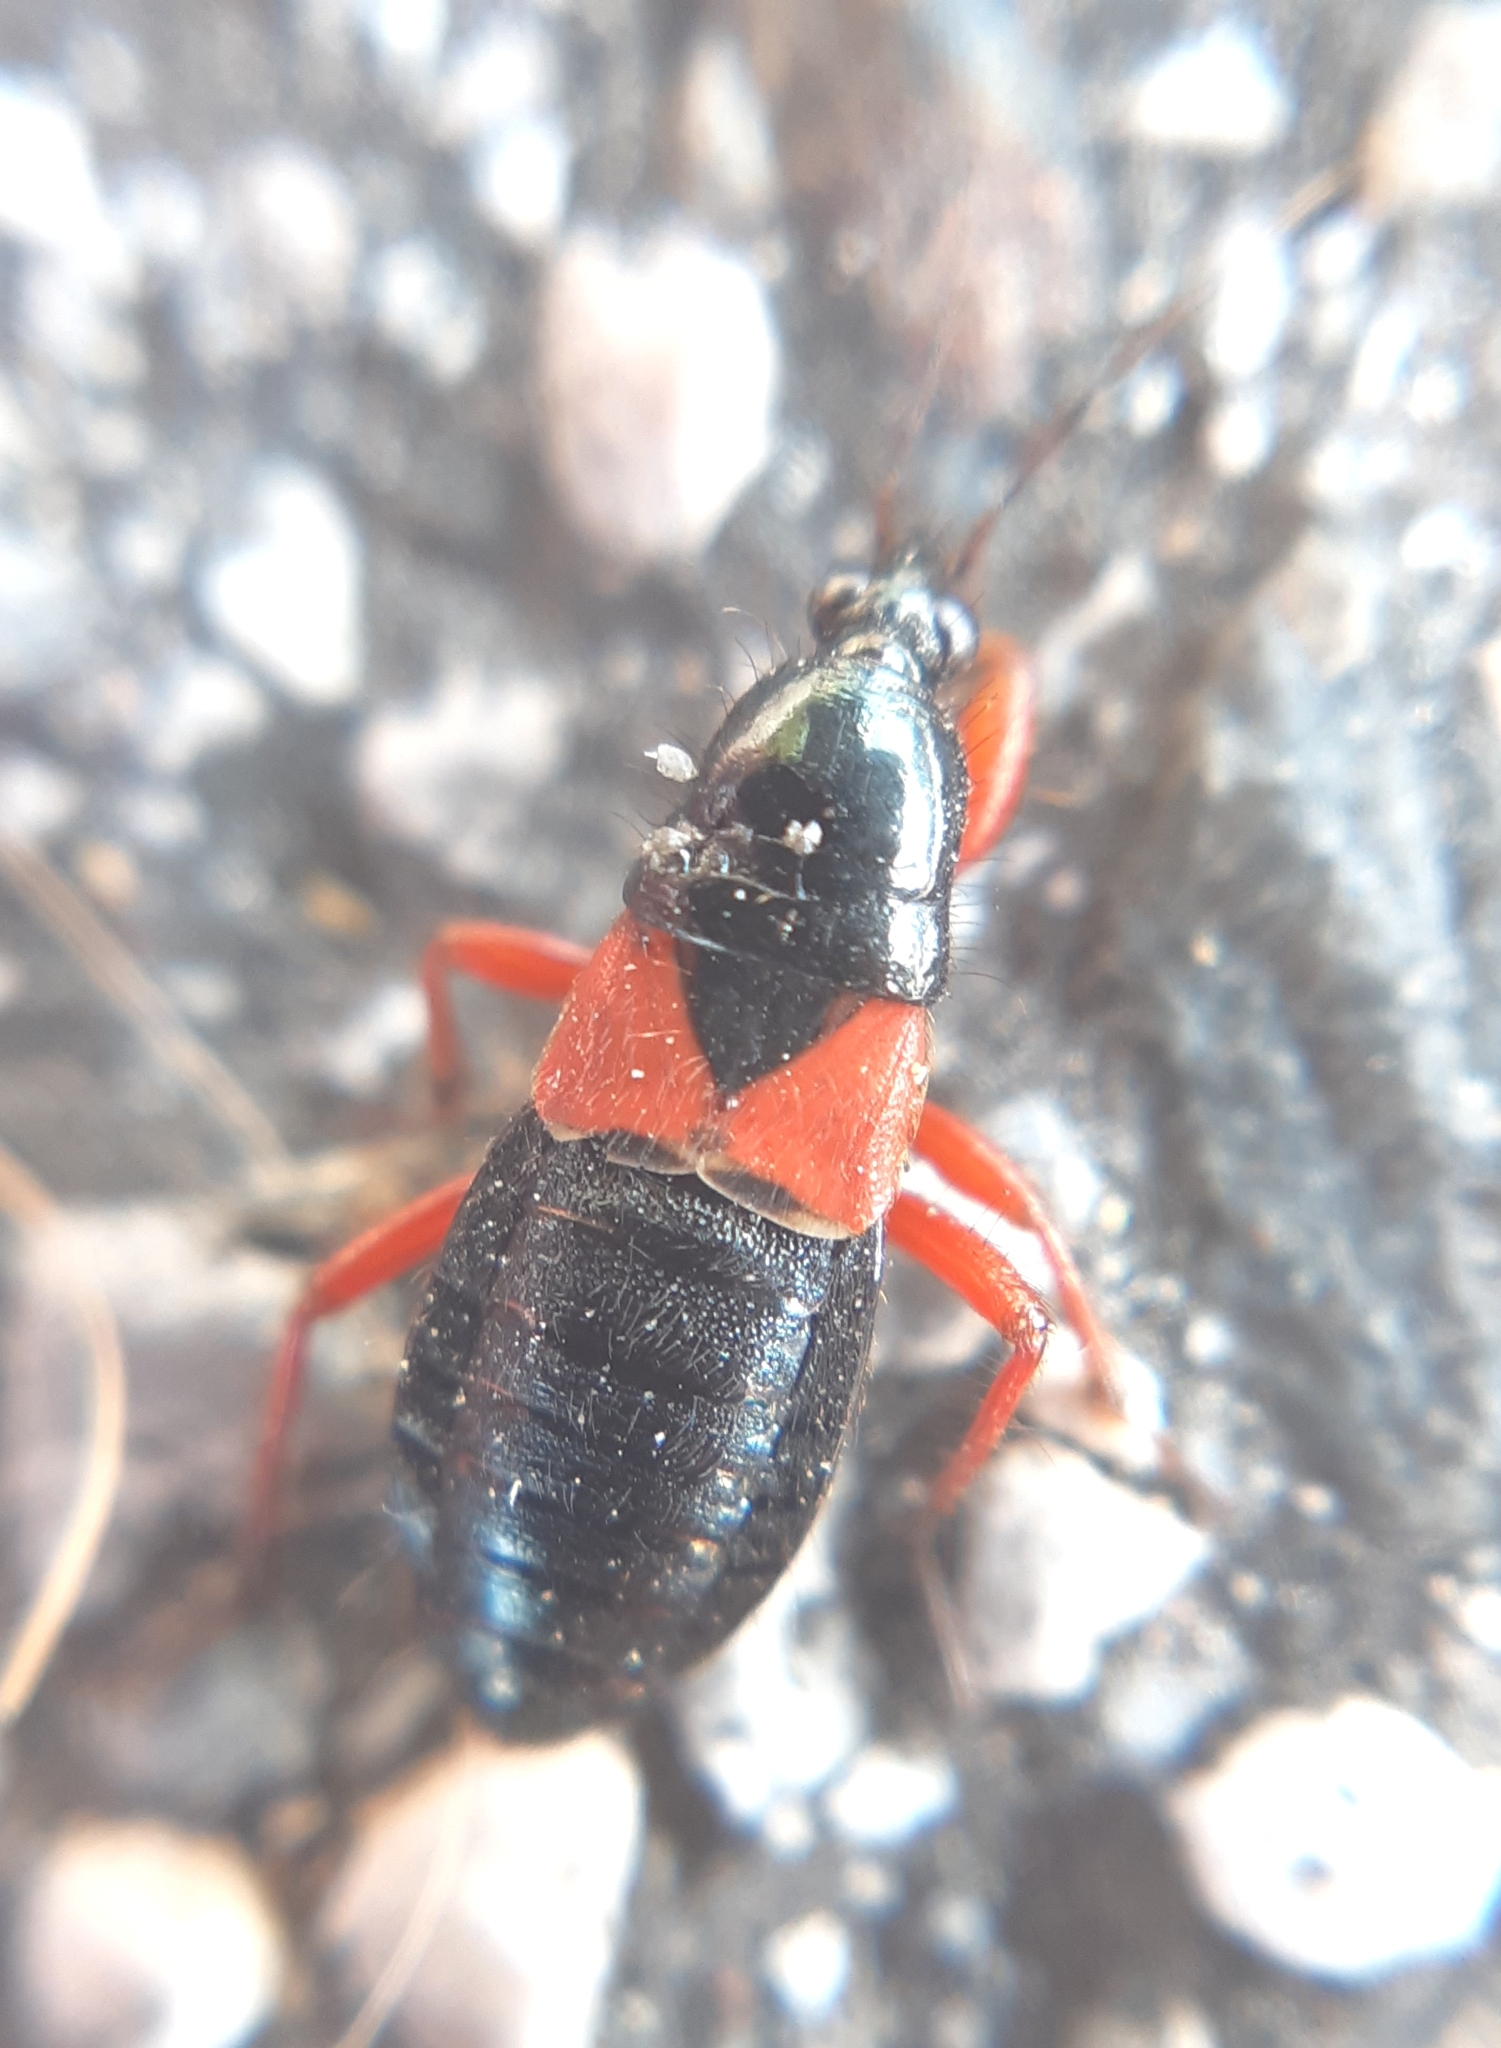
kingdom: Animalia
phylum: Arthropoda
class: Insecta
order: Hemiptera
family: Nabidae
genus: Prostemma
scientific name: Prostemma guttula
